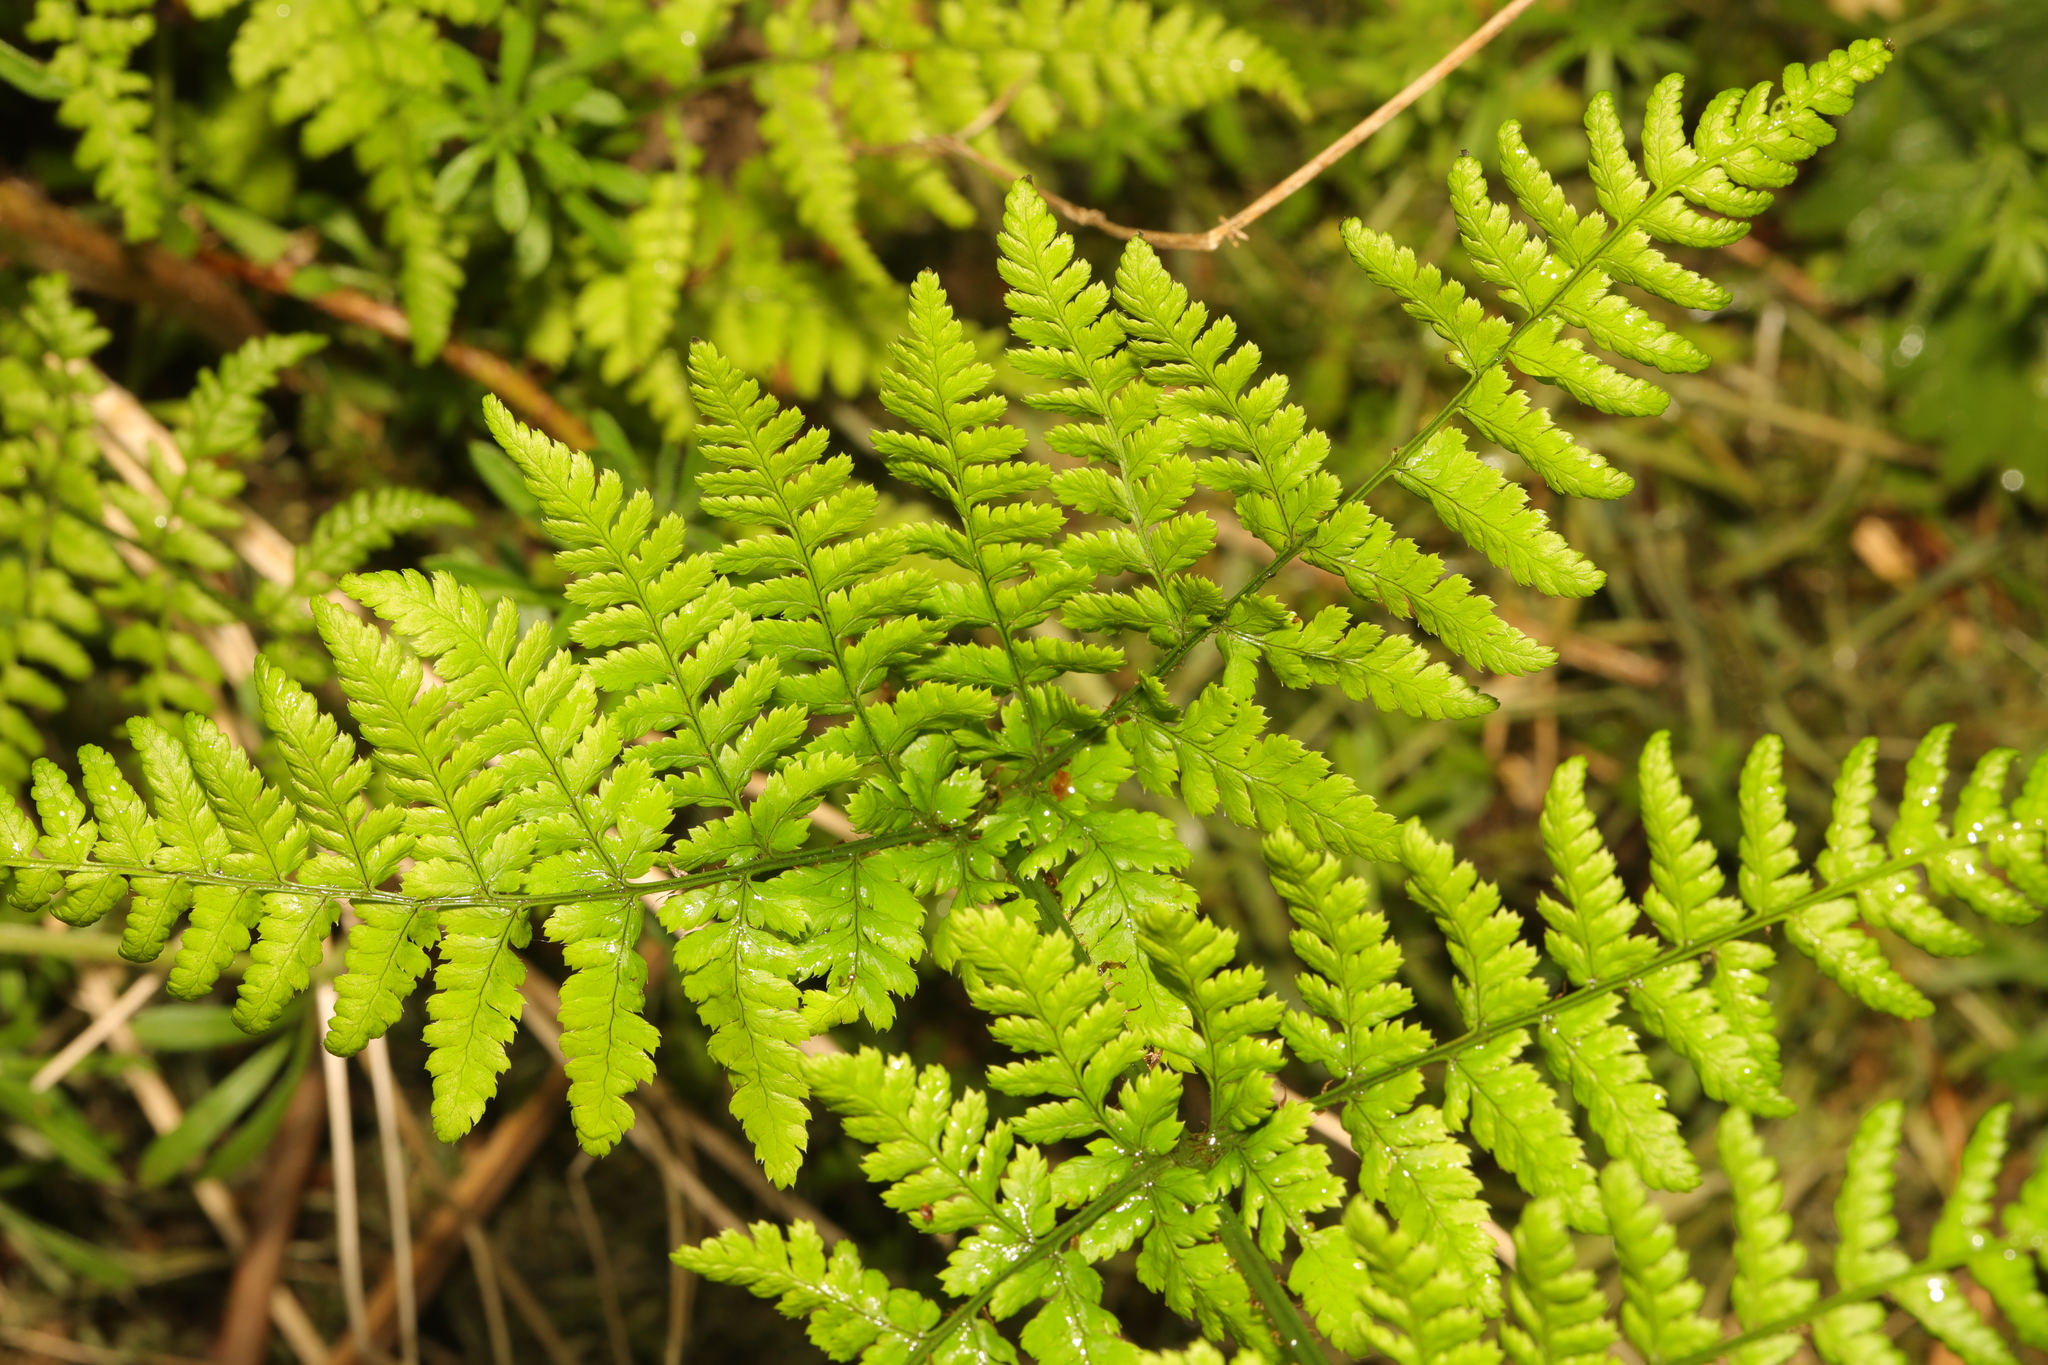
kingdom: Plantae
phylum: Tracheophyta
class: Polypodiopsida
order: Polypodiales
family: Dryopteridaceae
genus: Dryopteris
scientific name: Dryopteris dilatata
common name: Broad buckler-fern
